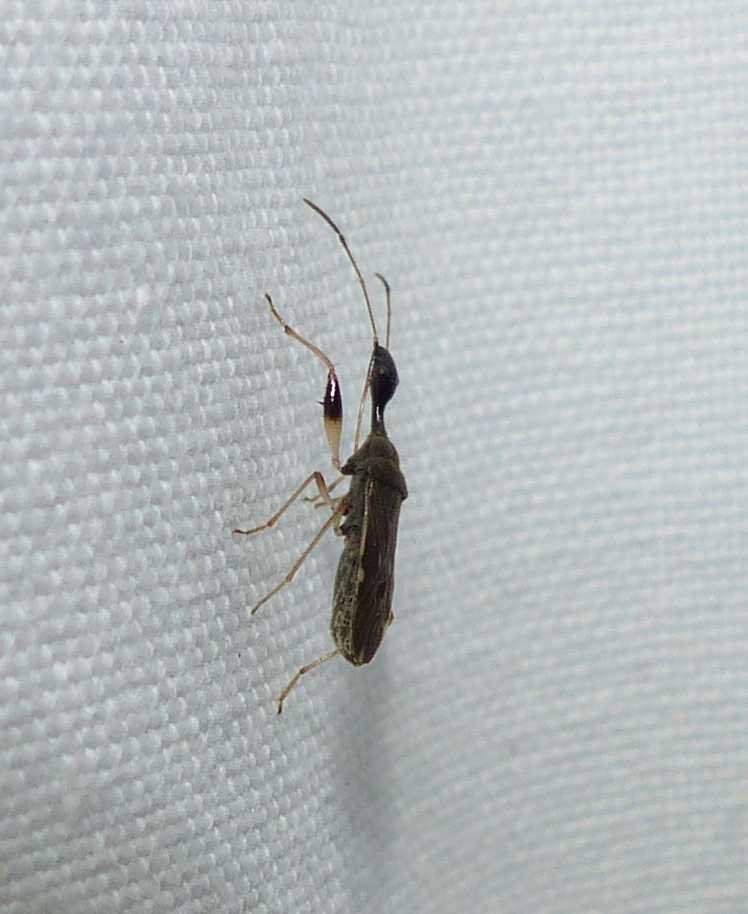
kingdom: Animalia
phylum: Arthropoda
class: Insecta
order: Hemiptera
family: Rhyparochromidae
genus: Myodocha
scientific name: Myodocha serripes
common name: Long-necked seed bug
